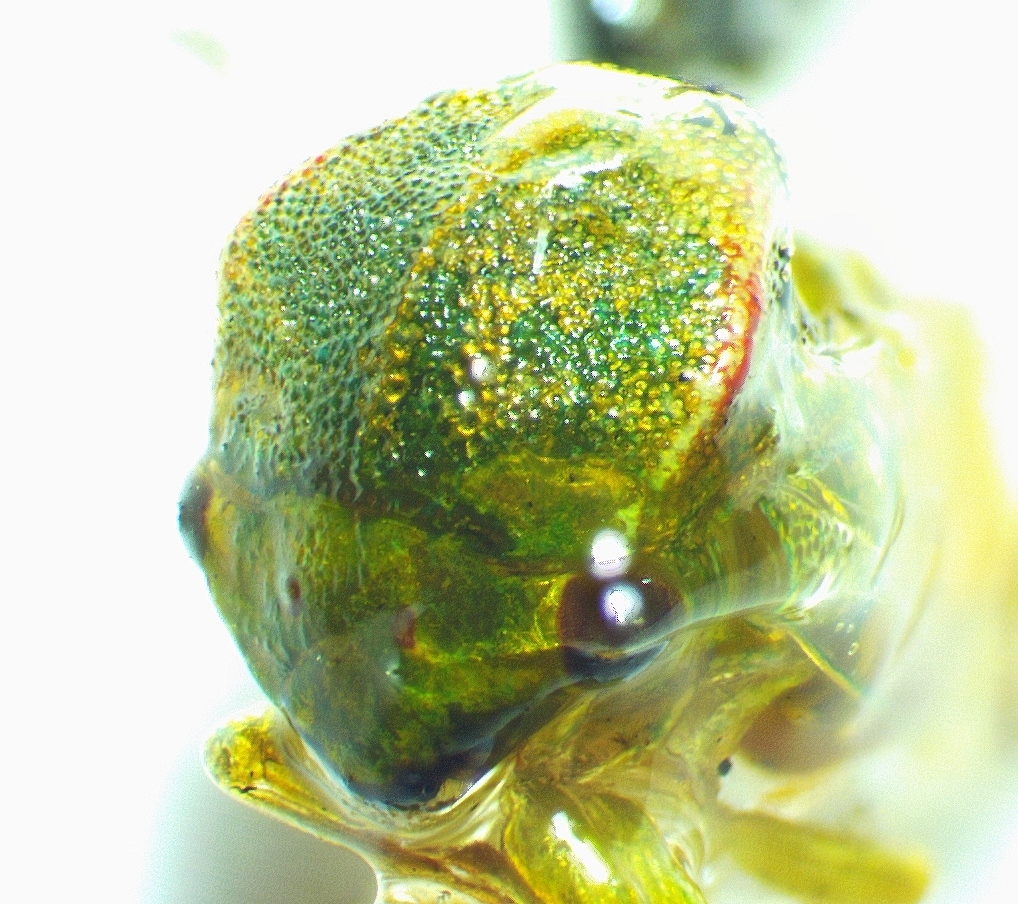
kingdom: Animalia
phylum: Arthropoda
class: Insecta
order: Hemiptera
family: Membracidae
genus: Spissistilus
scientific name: Spissistilus festina
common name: Membracid bug
